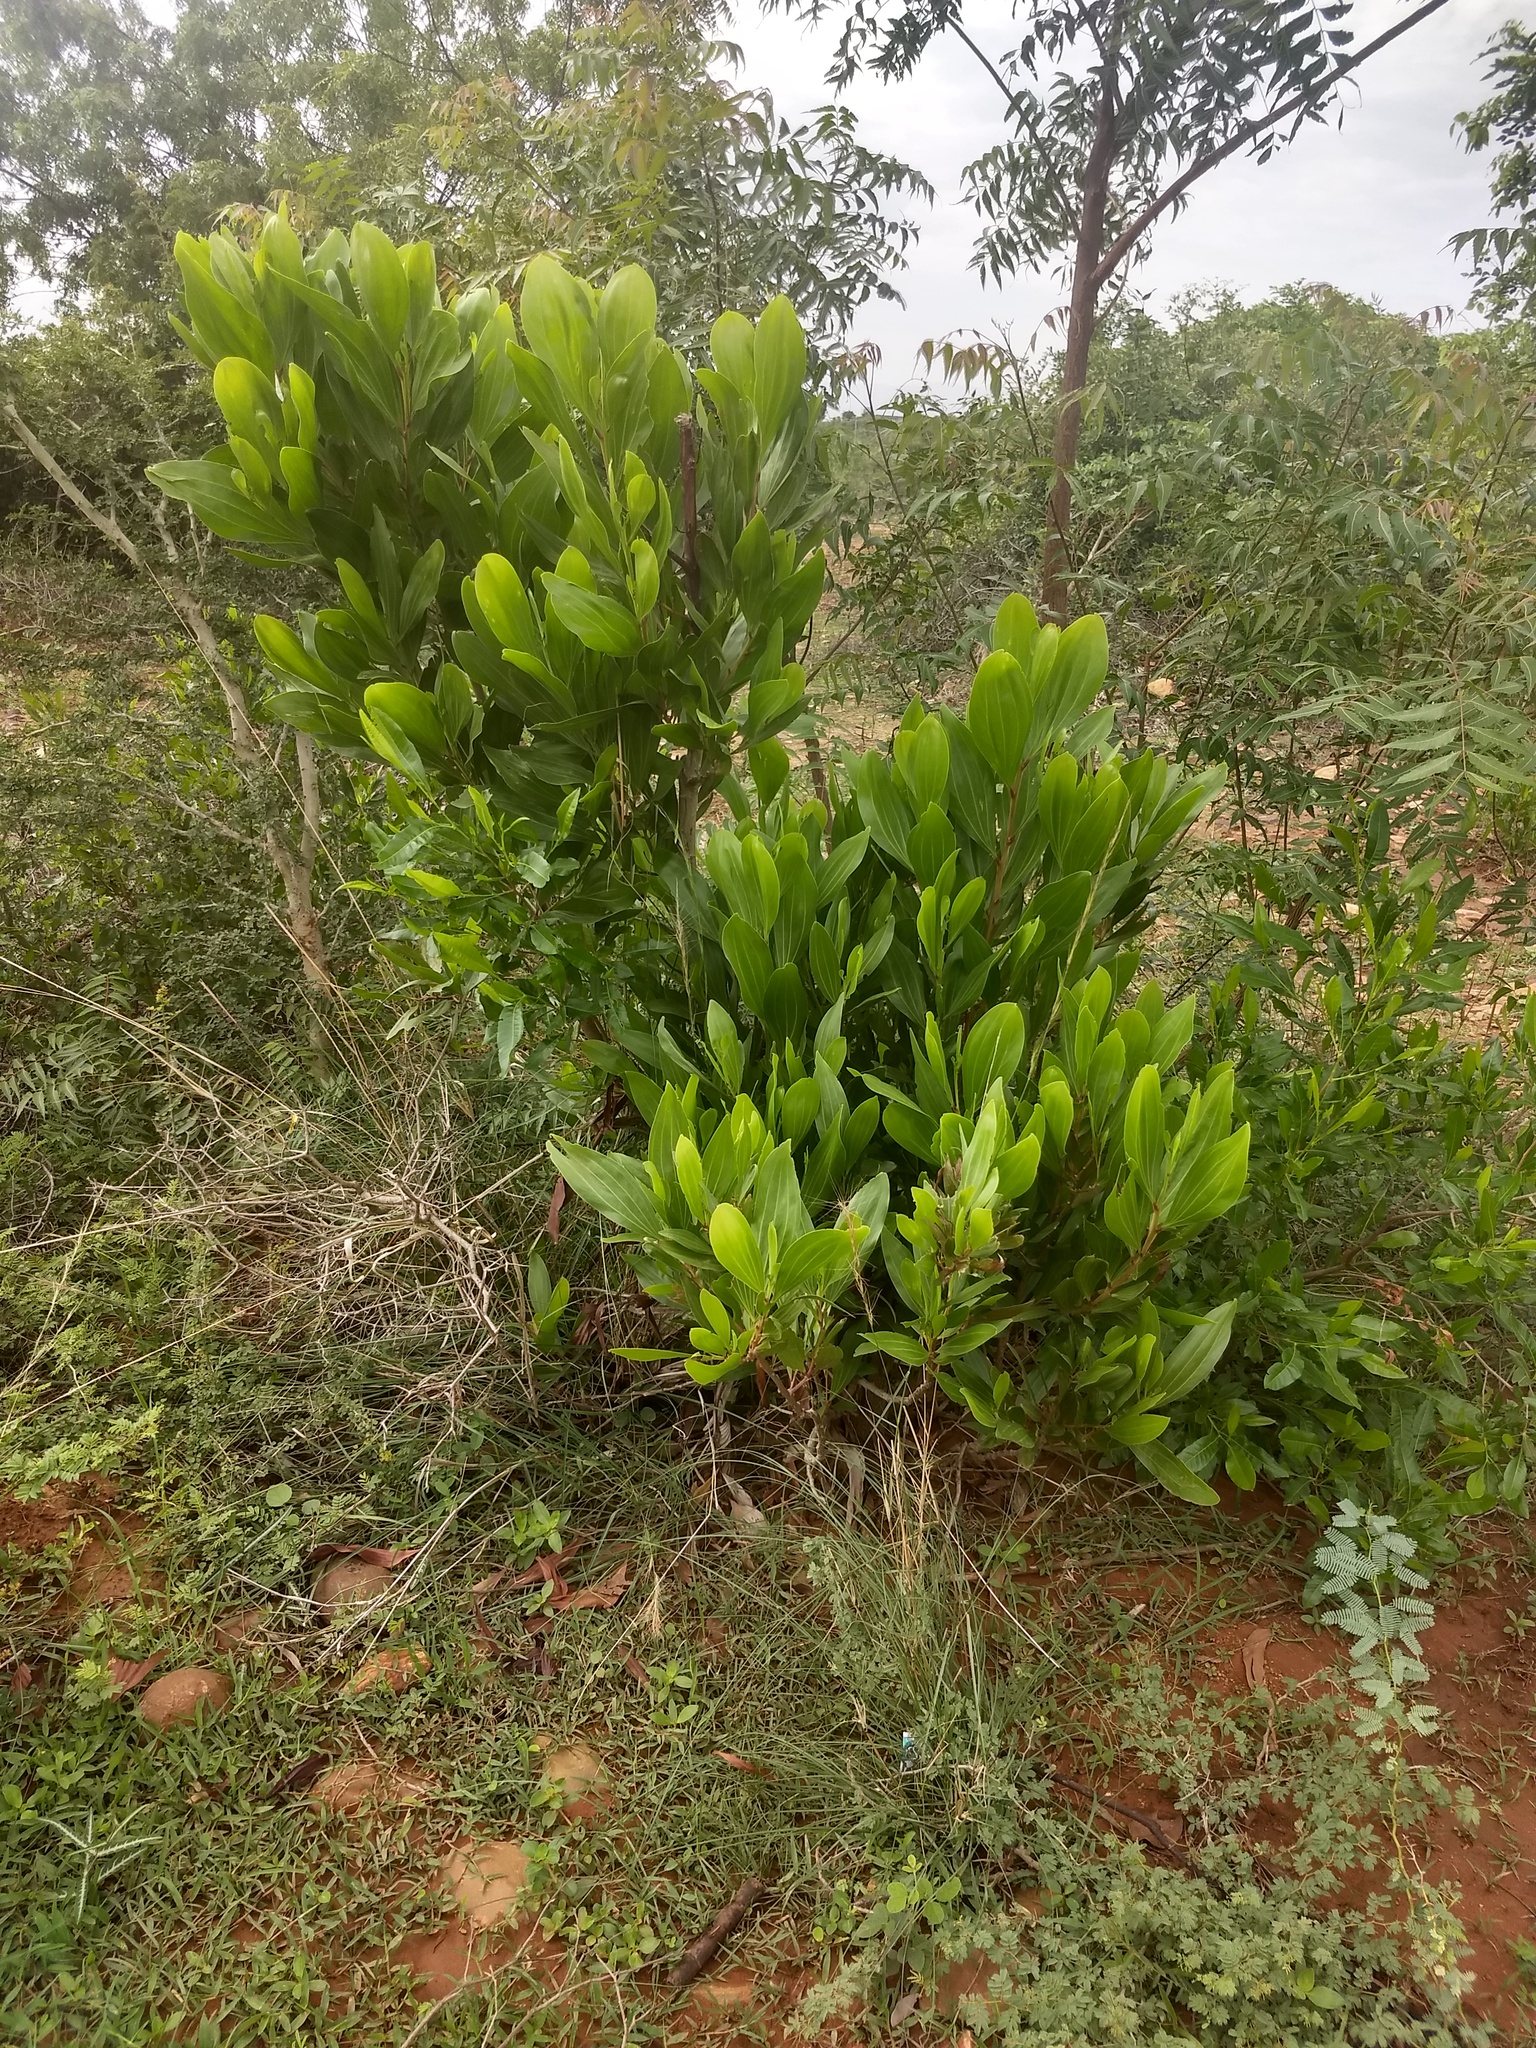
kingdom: Plantae
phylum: Tracheophyta
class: Magnoliopsida
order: Fabales
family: Fabaceae
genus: Acacia
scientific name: Acacia mangium
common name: Black wattle
